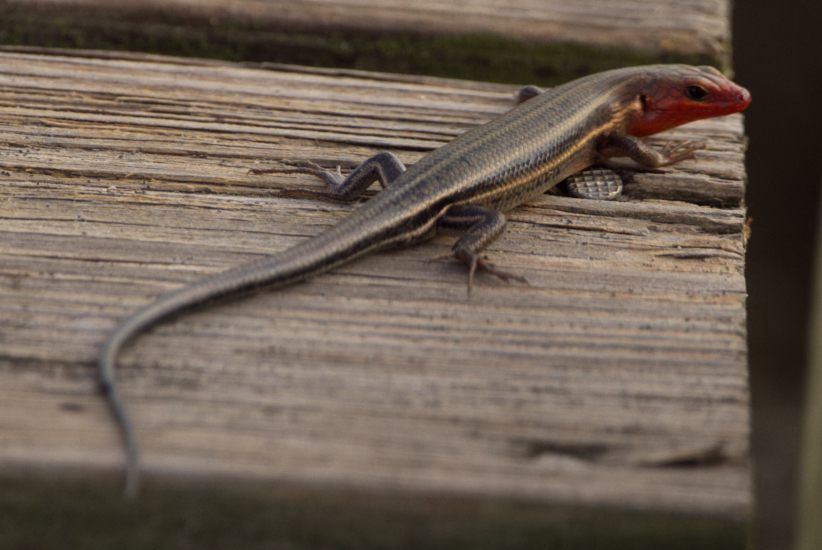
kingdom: Animalia
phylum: Chordata
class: Squamata
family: Scincidae
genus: Plestiodon
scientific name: Plestiodon inexpectatus
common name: Southeastern five-lined skink
